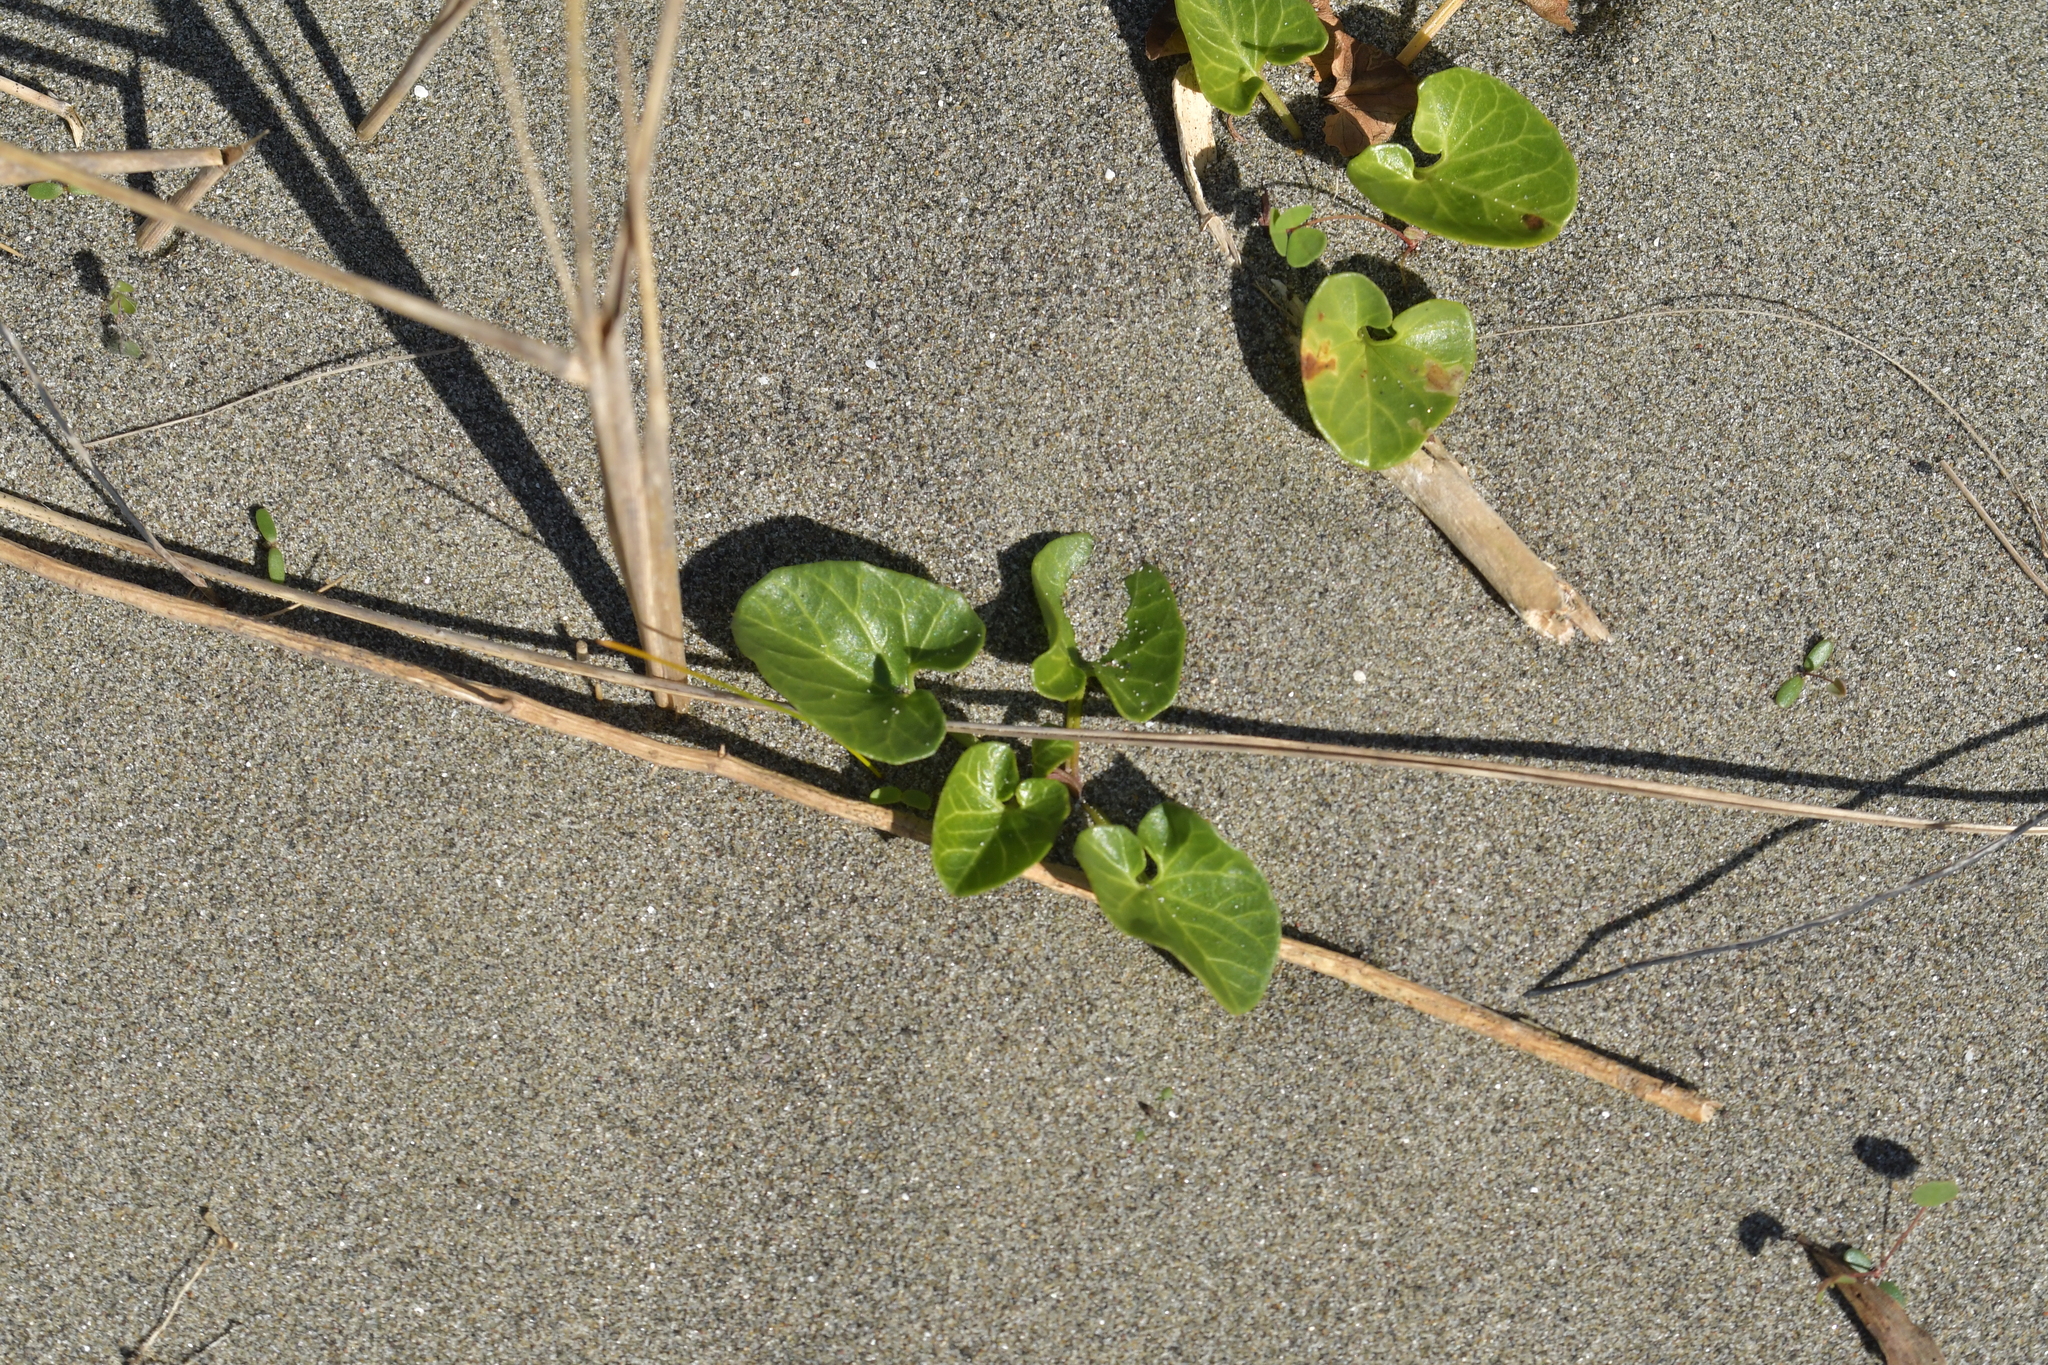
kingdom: Plantae
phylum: Tracheophyta
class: Magnoliopsida
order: Solanales
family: Convolvulaceae
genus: Calystegia
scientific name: Calystegia soldanella
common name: Sea bindweed
